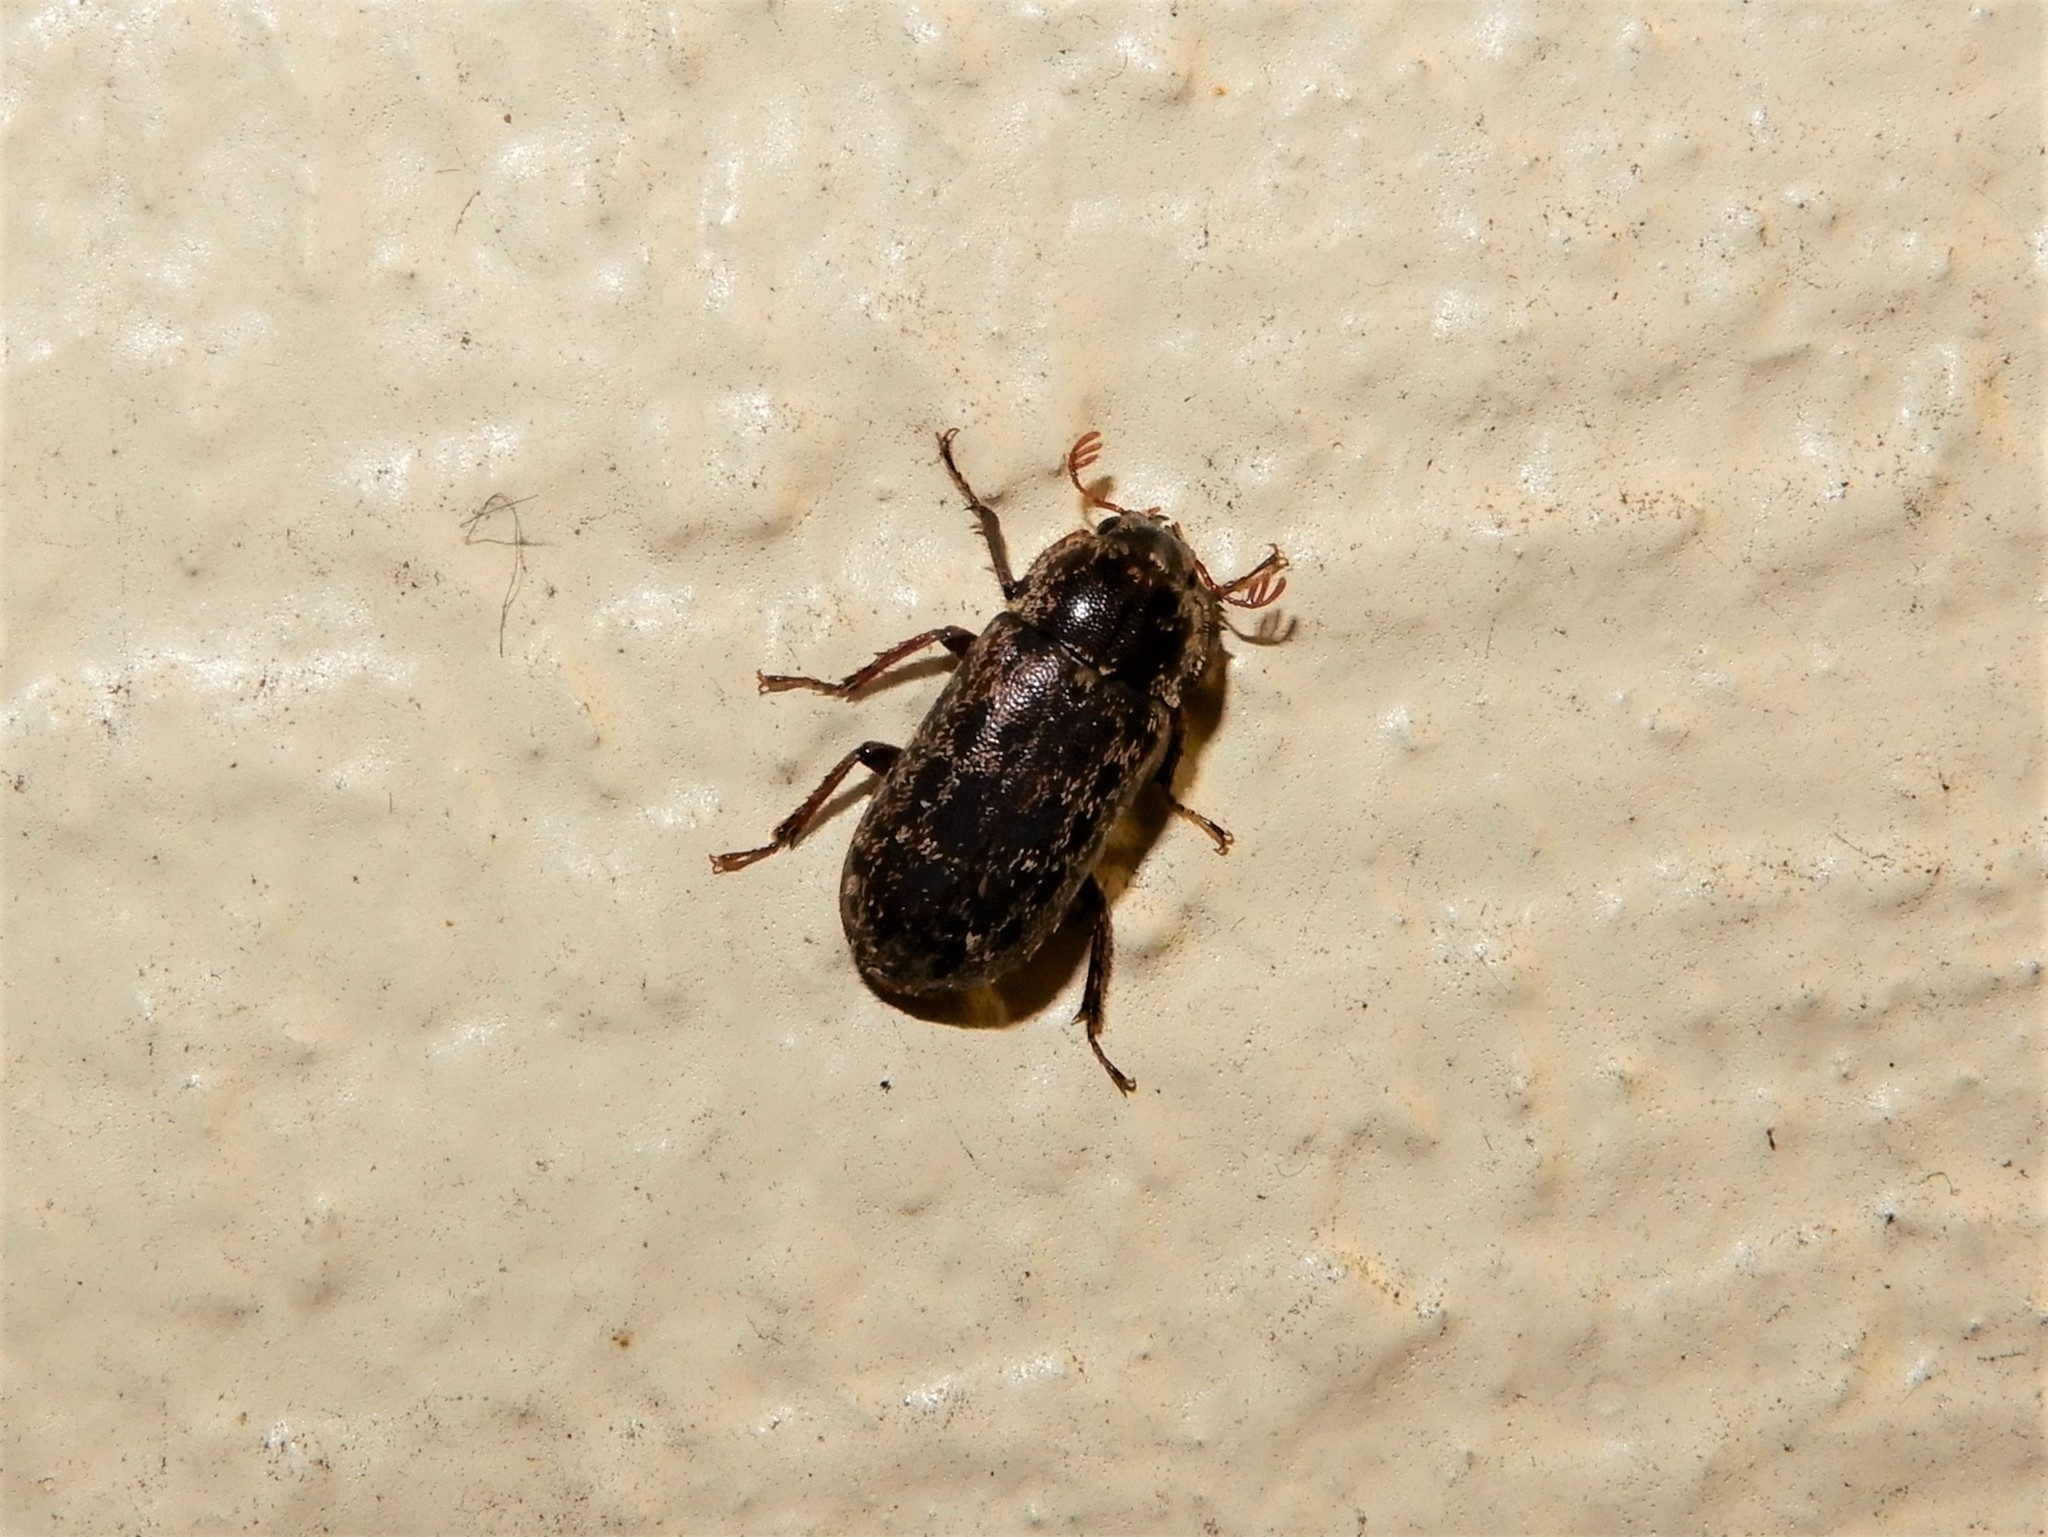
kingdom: Animalia
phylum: Arthropoda
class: Insecta
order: Coleoptera
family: Lucanidae
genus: Mitophyllus
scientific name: Mitophyllus irroratus
